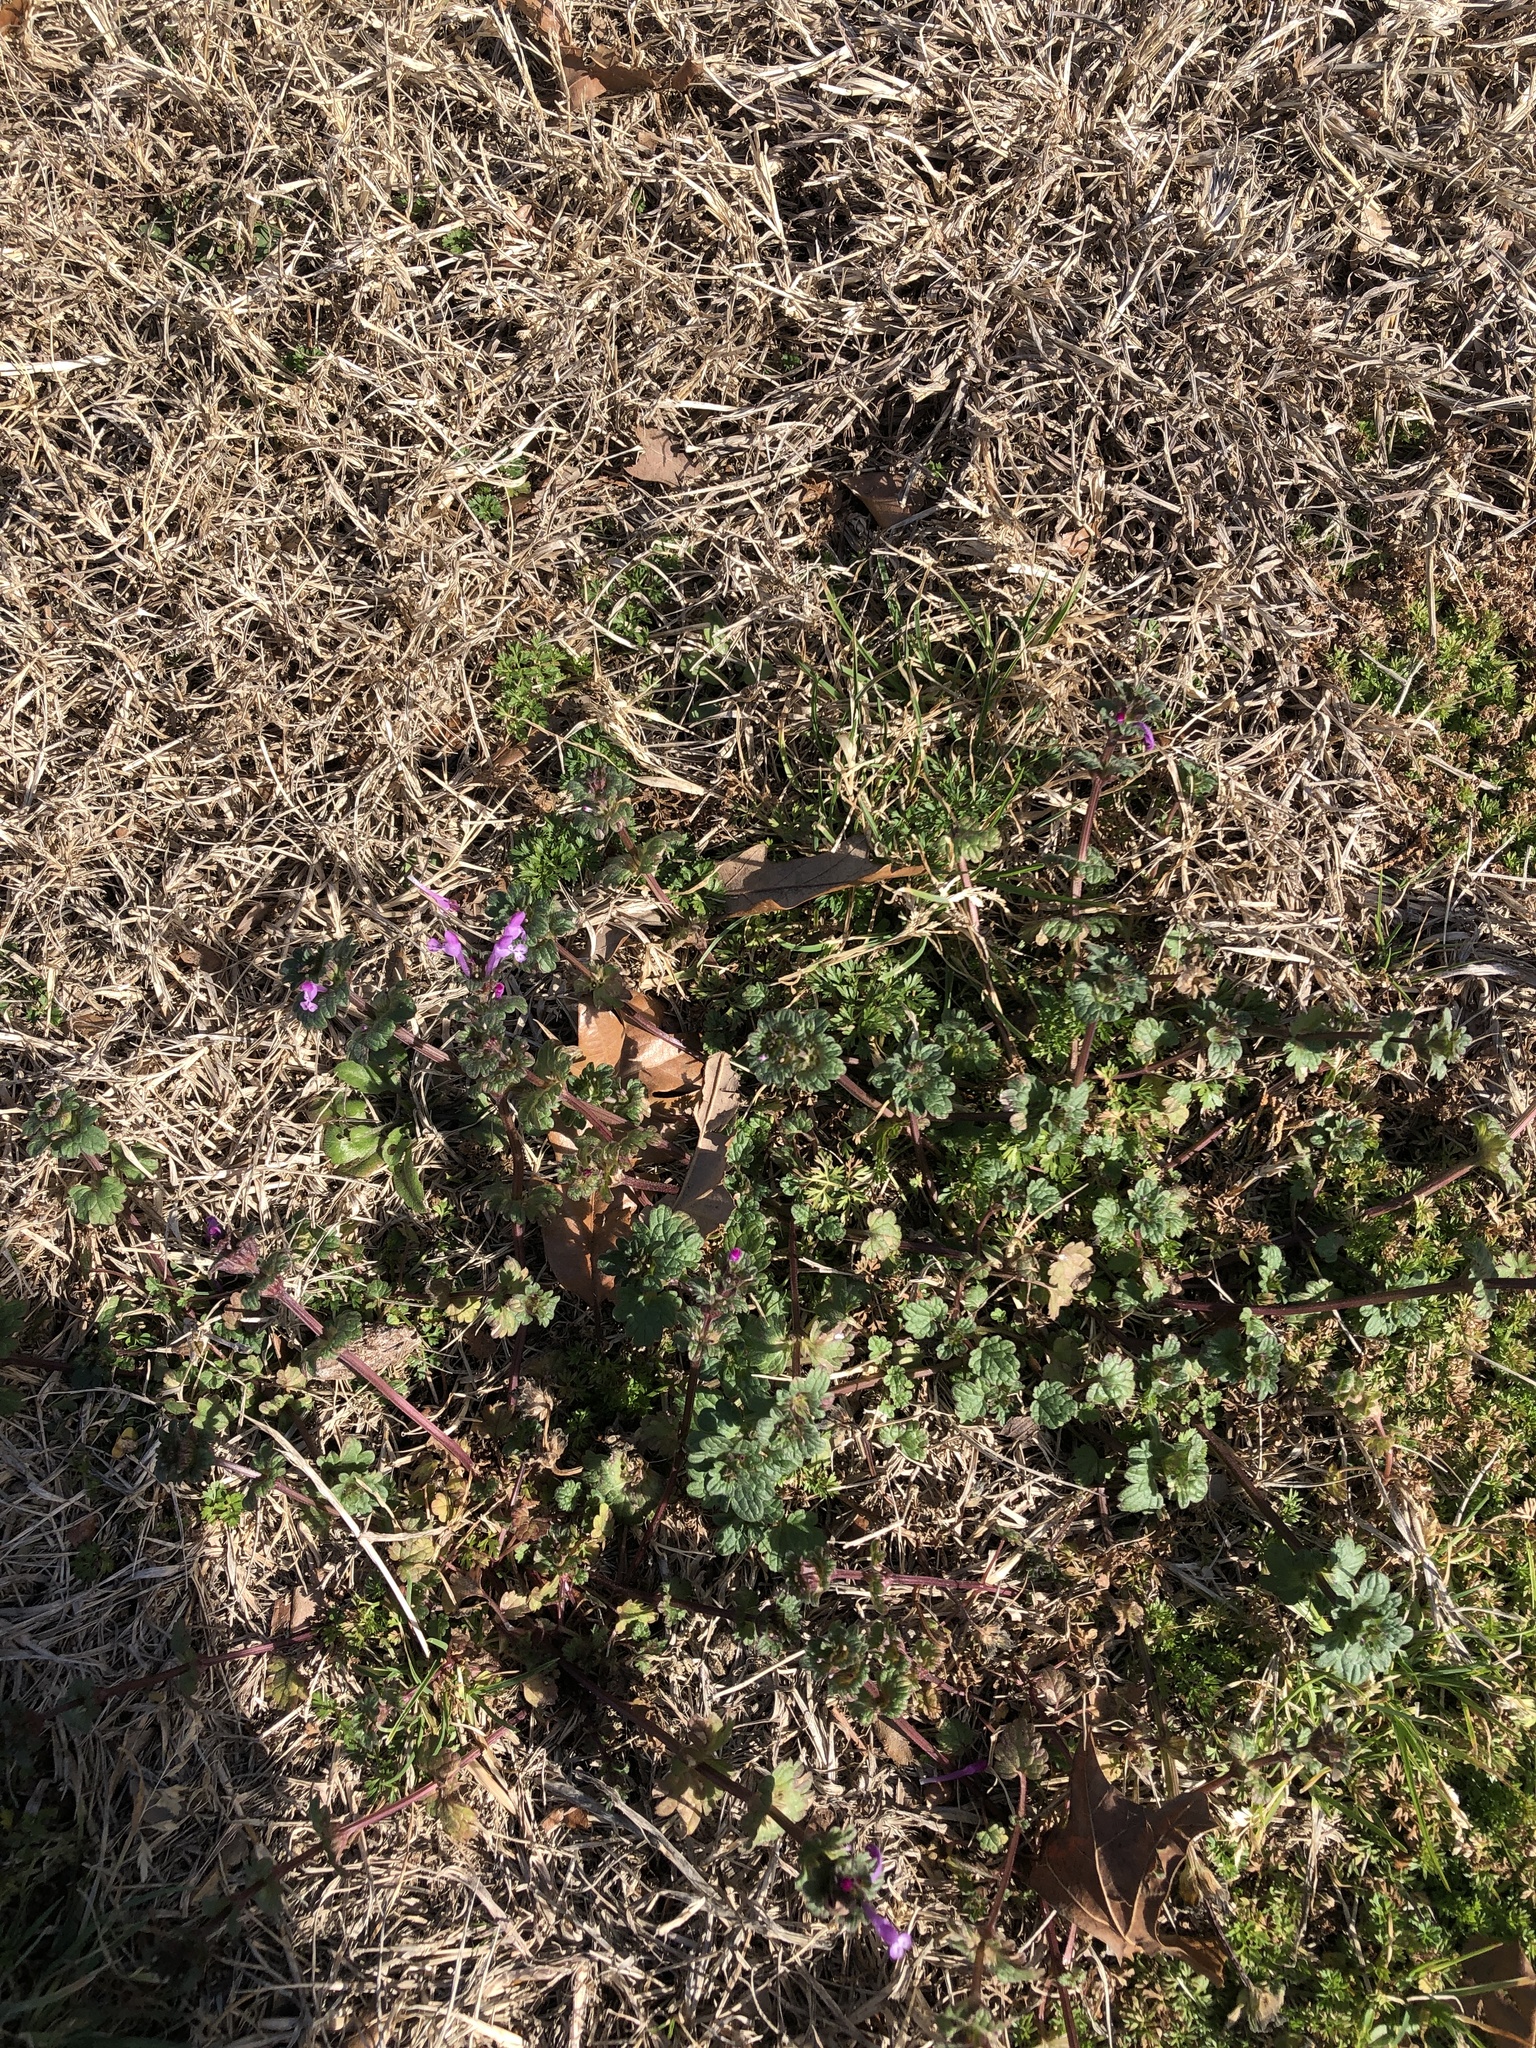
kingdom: Plantae
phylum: Tracheophyta
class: Magnoliopsida
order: Lamiales
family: Lamiaceae
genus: Lamium
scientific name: Lamium amplexicaule
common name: Henbit dead-nettle
